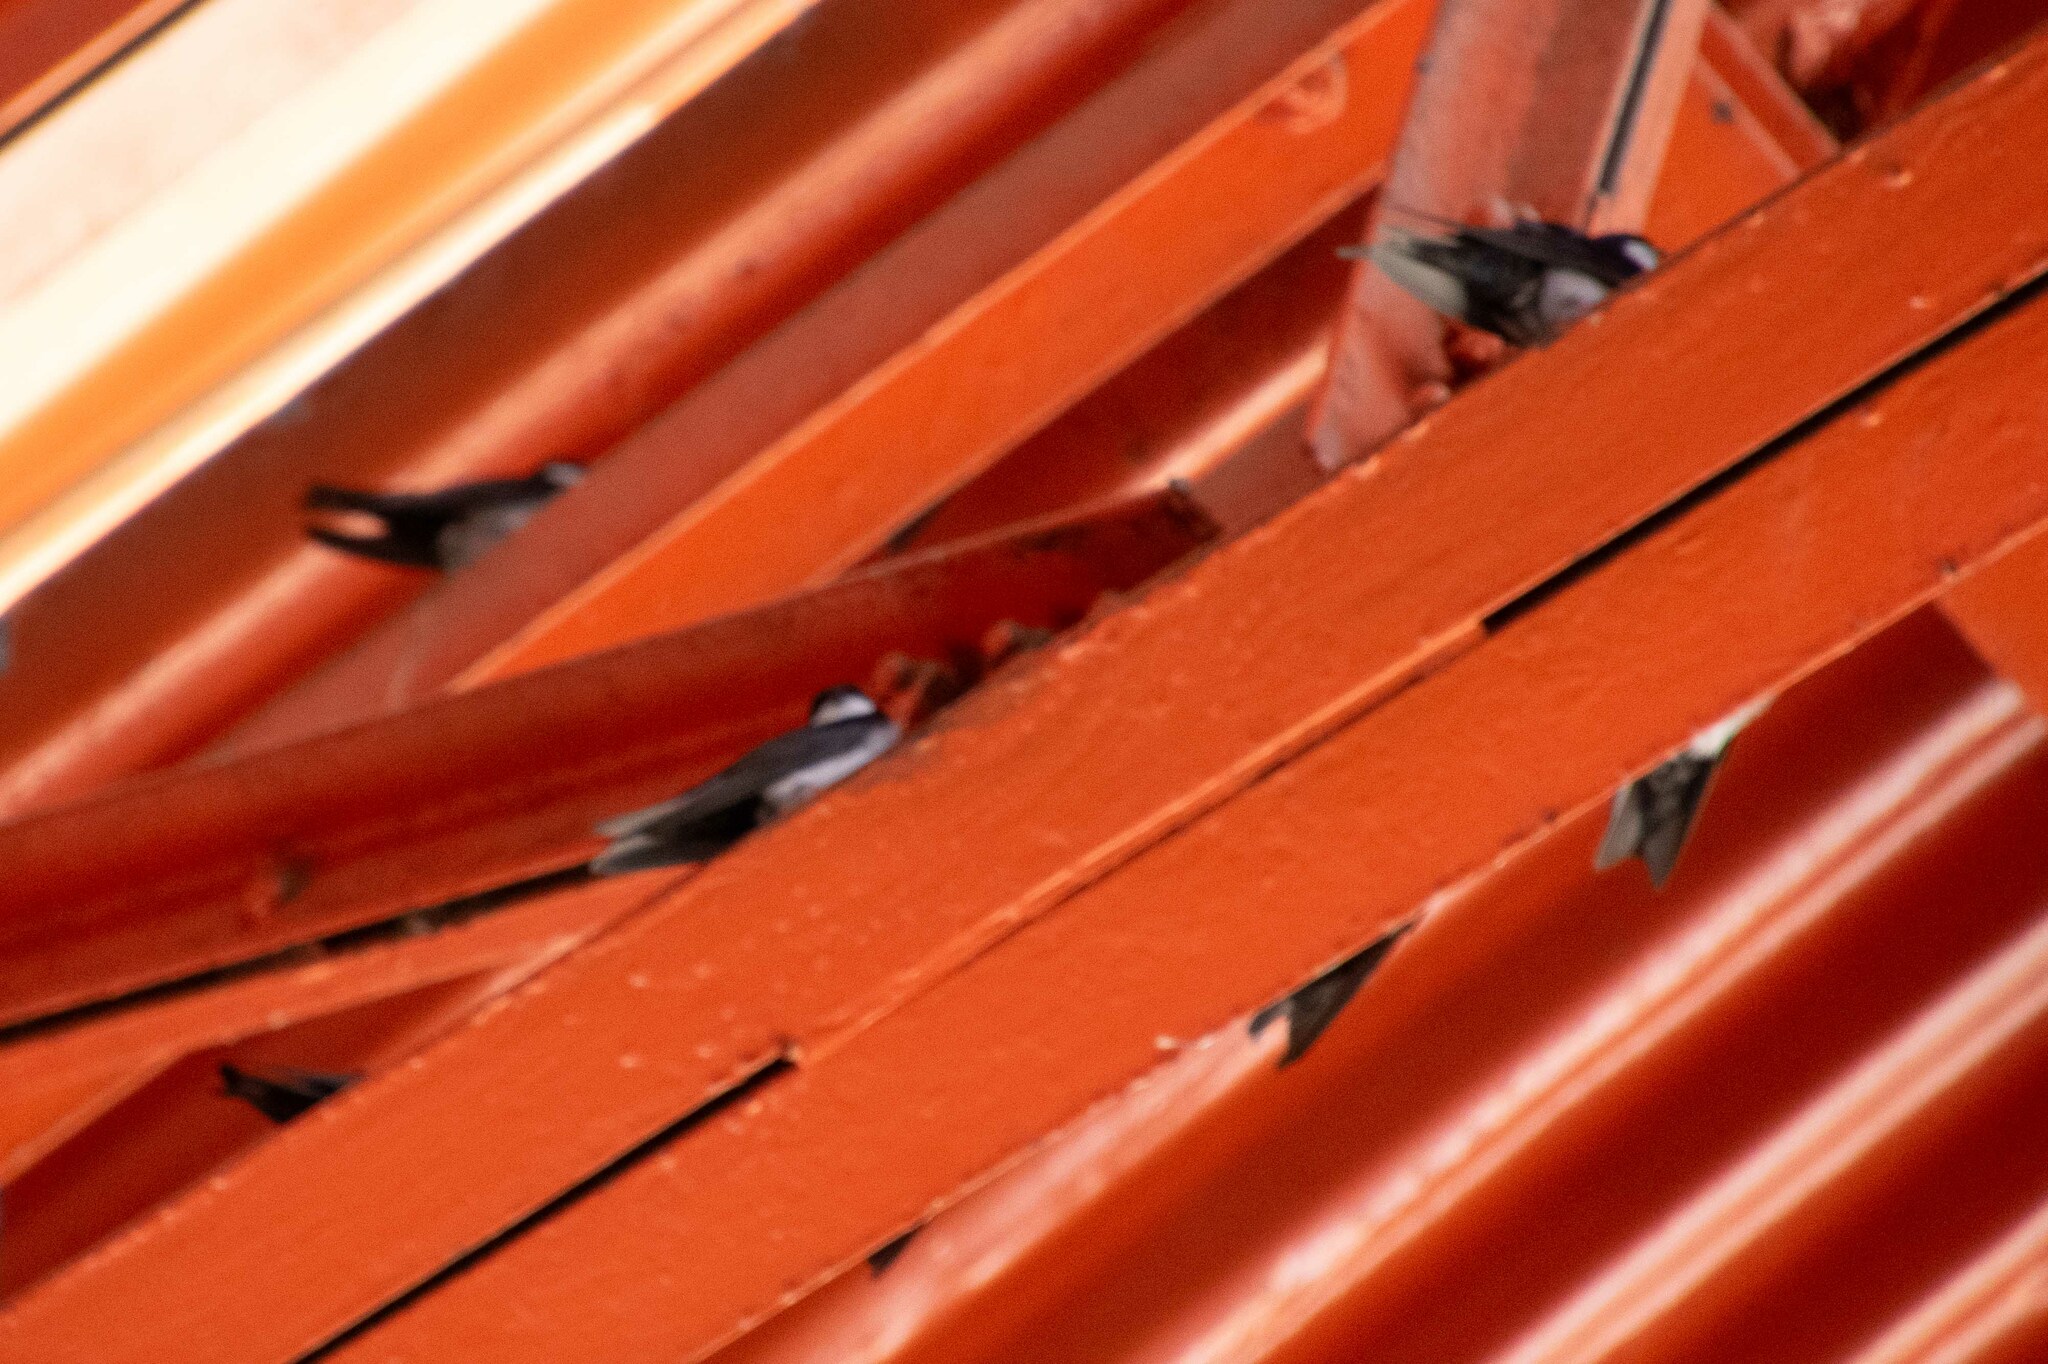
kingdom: Animalia
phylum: Chordata
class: Aves
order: Passeriformes
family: Hirundinidae
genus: Notiochelidon
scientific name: Notiochelidon cyanoleuca
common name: Blue-and-white swallow
